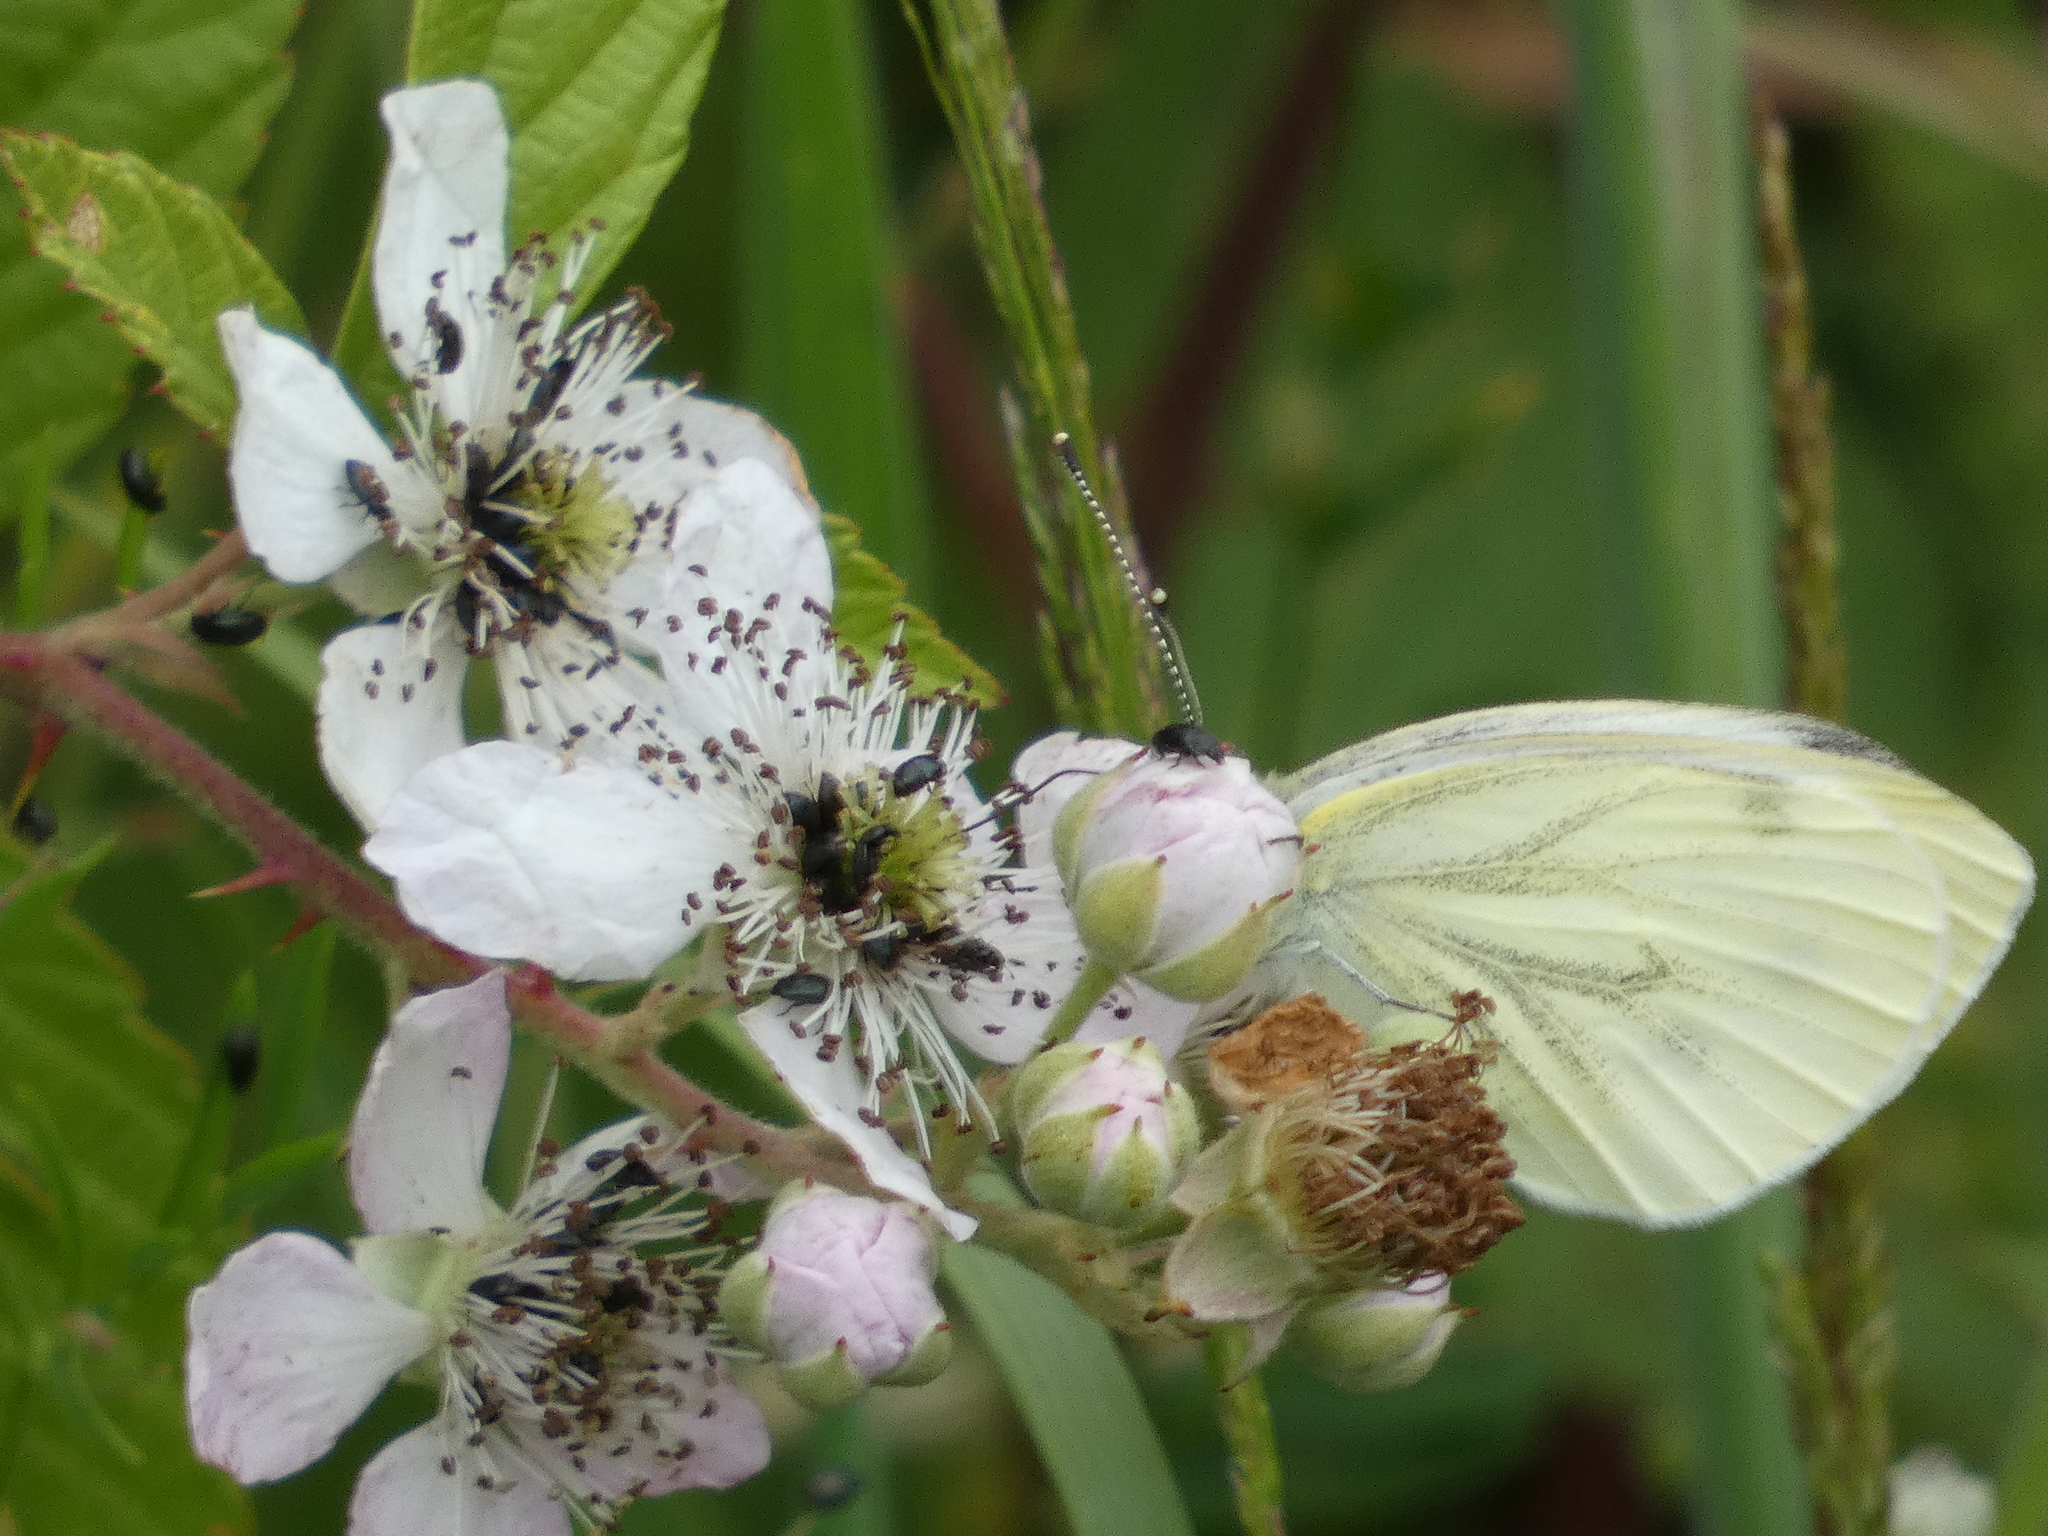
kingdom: Animalia
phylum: Arthropoda
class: Insecta
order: Lepidoptera
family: Pieridae
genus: Pieris
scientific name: Pieris napi
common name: Green-veined white
